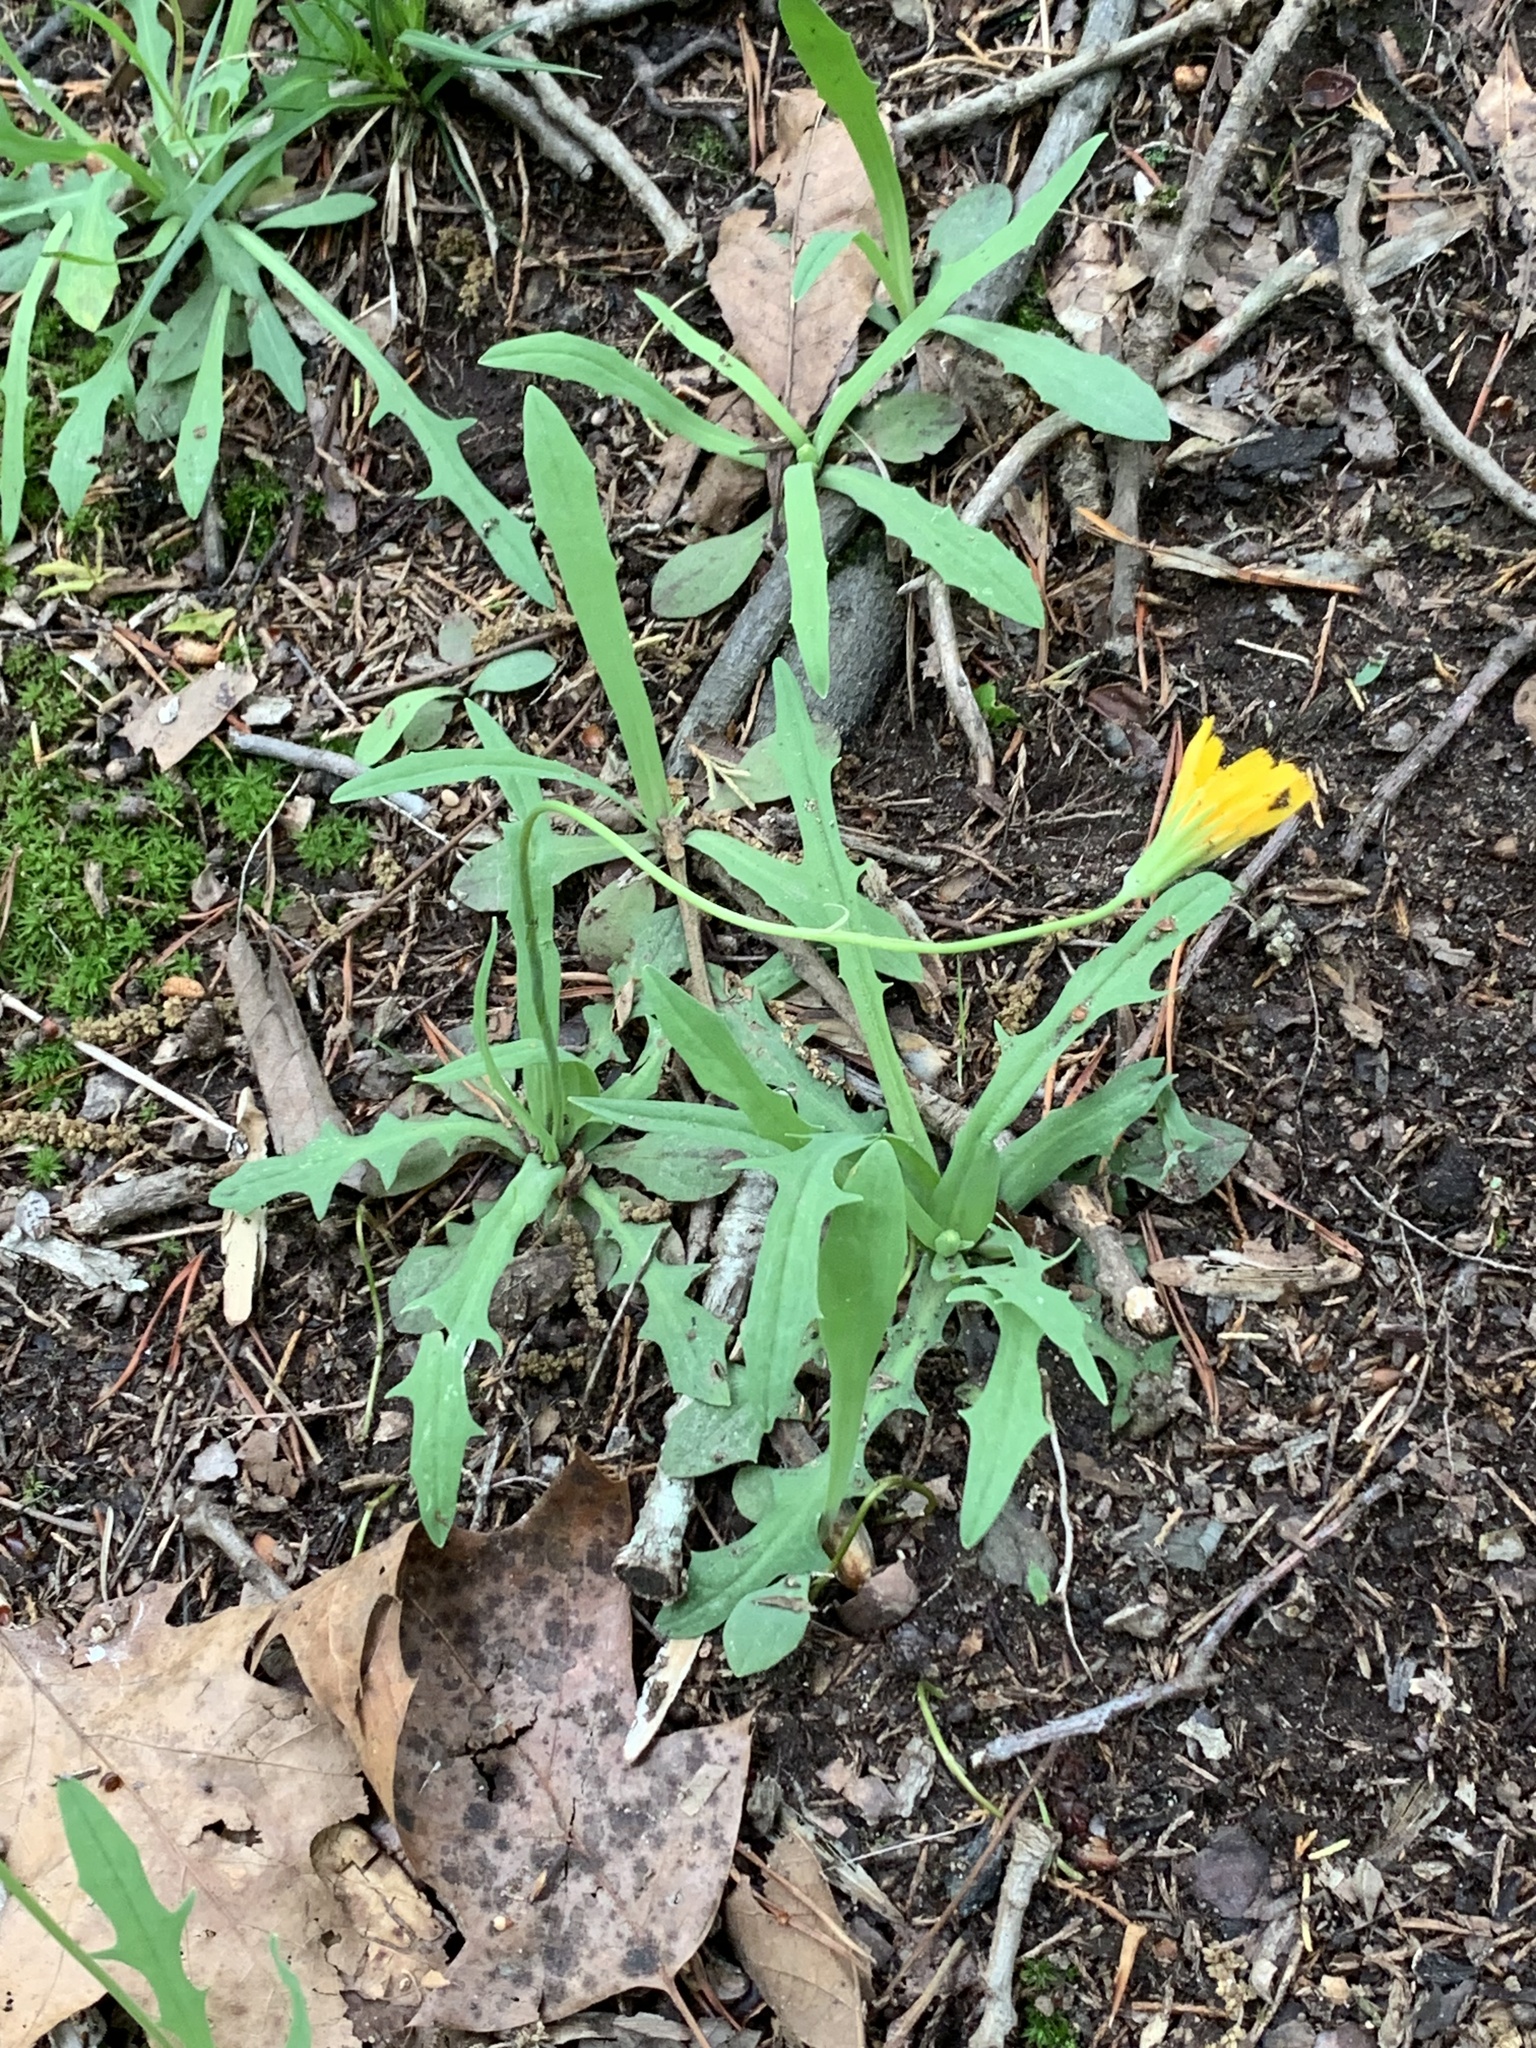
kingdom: Plantae
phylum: Tracheophyta
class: Magnoliopsida
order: Asterales
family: Asteraceae
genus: Krigia
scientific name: Krigia dandelion
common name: Colonial dwarf-dandelion
